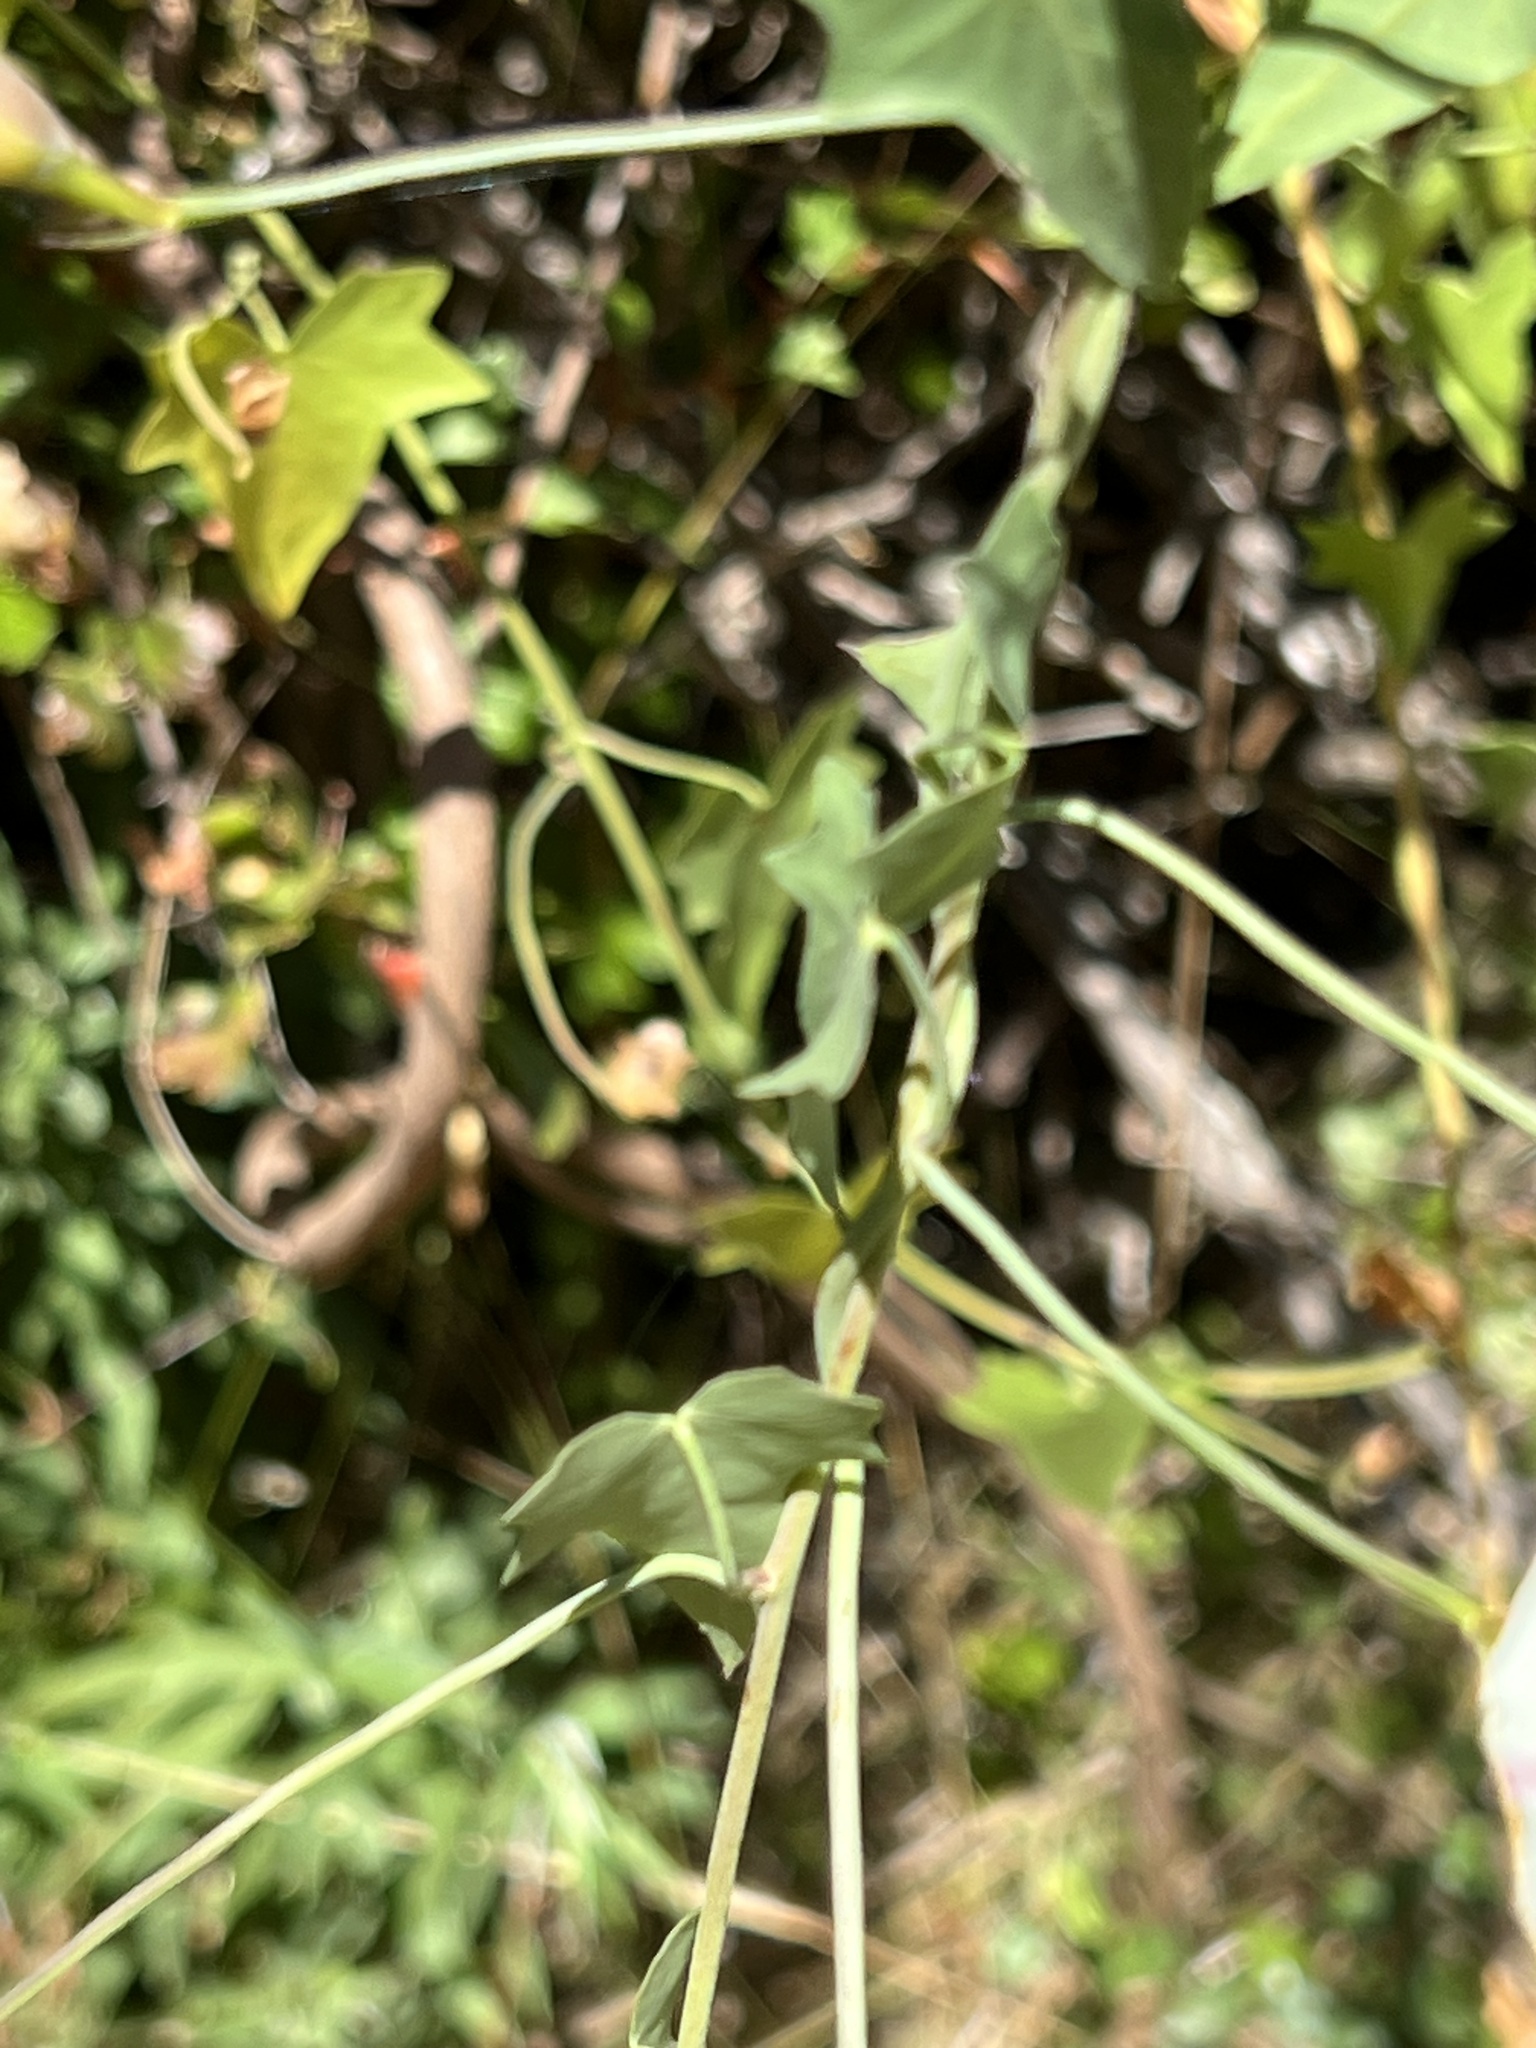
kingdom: Plantae
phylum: Tracheophyta
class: Magnoliopsida
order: Solanales
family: Convolvulaceae
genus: Calystegia
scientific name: Calystegia purpurata
